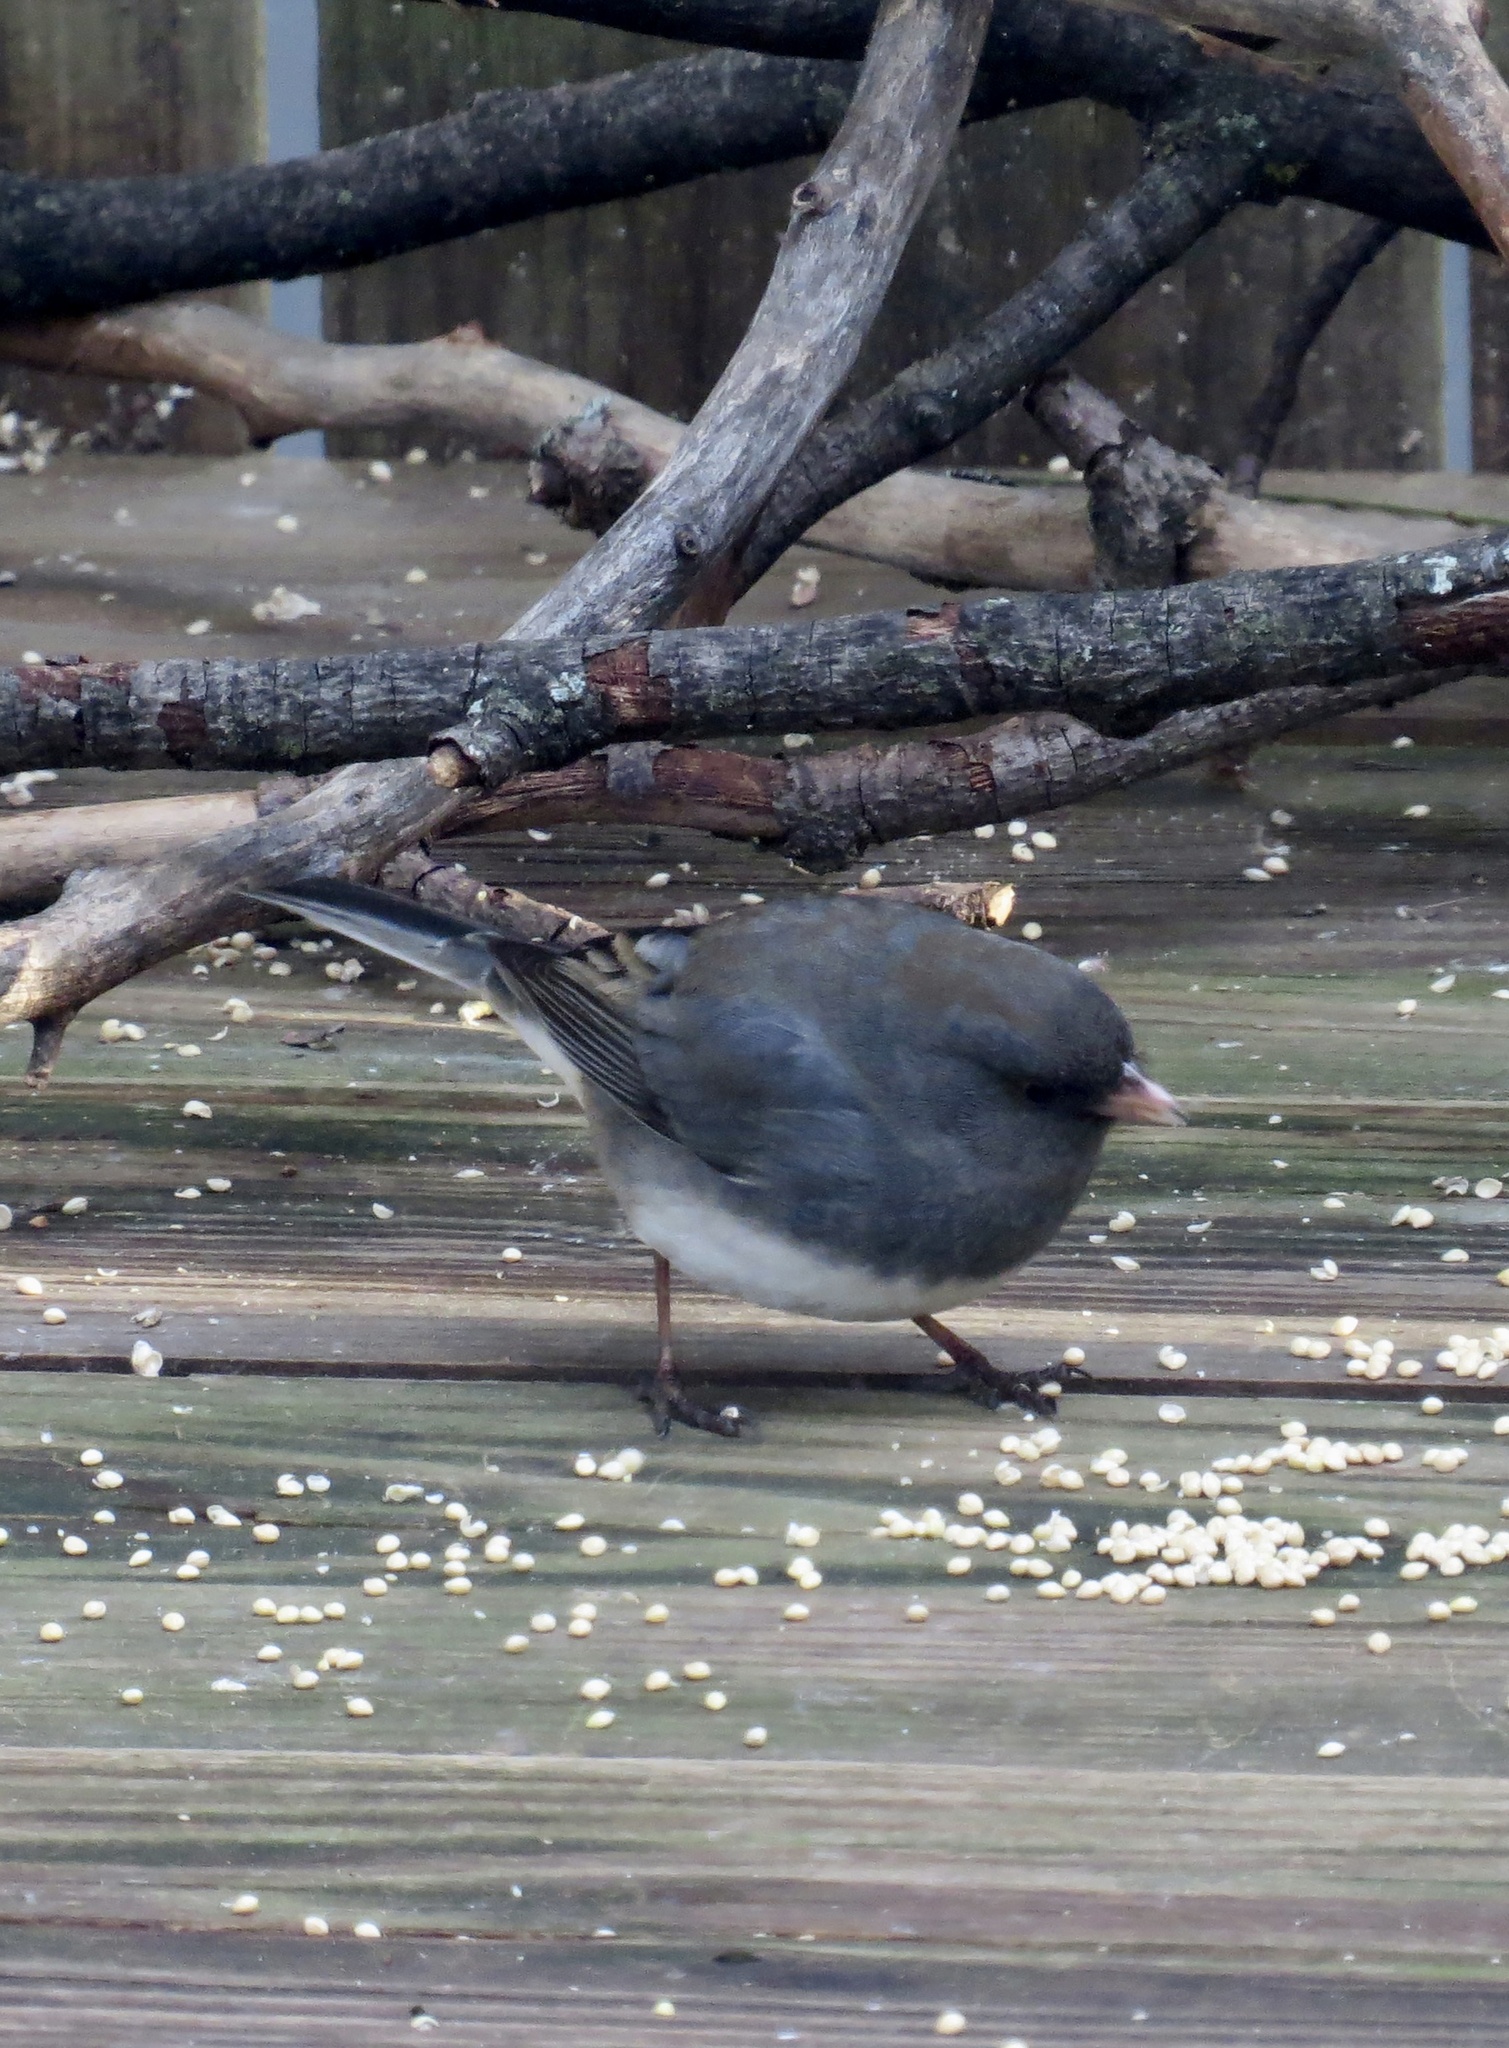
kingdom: Animalia
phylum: Chordata
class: Aves
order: Passeriformes
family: Passerellidae
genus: Junco
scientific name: Junco hyemalis
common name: Dark-eyed junco
